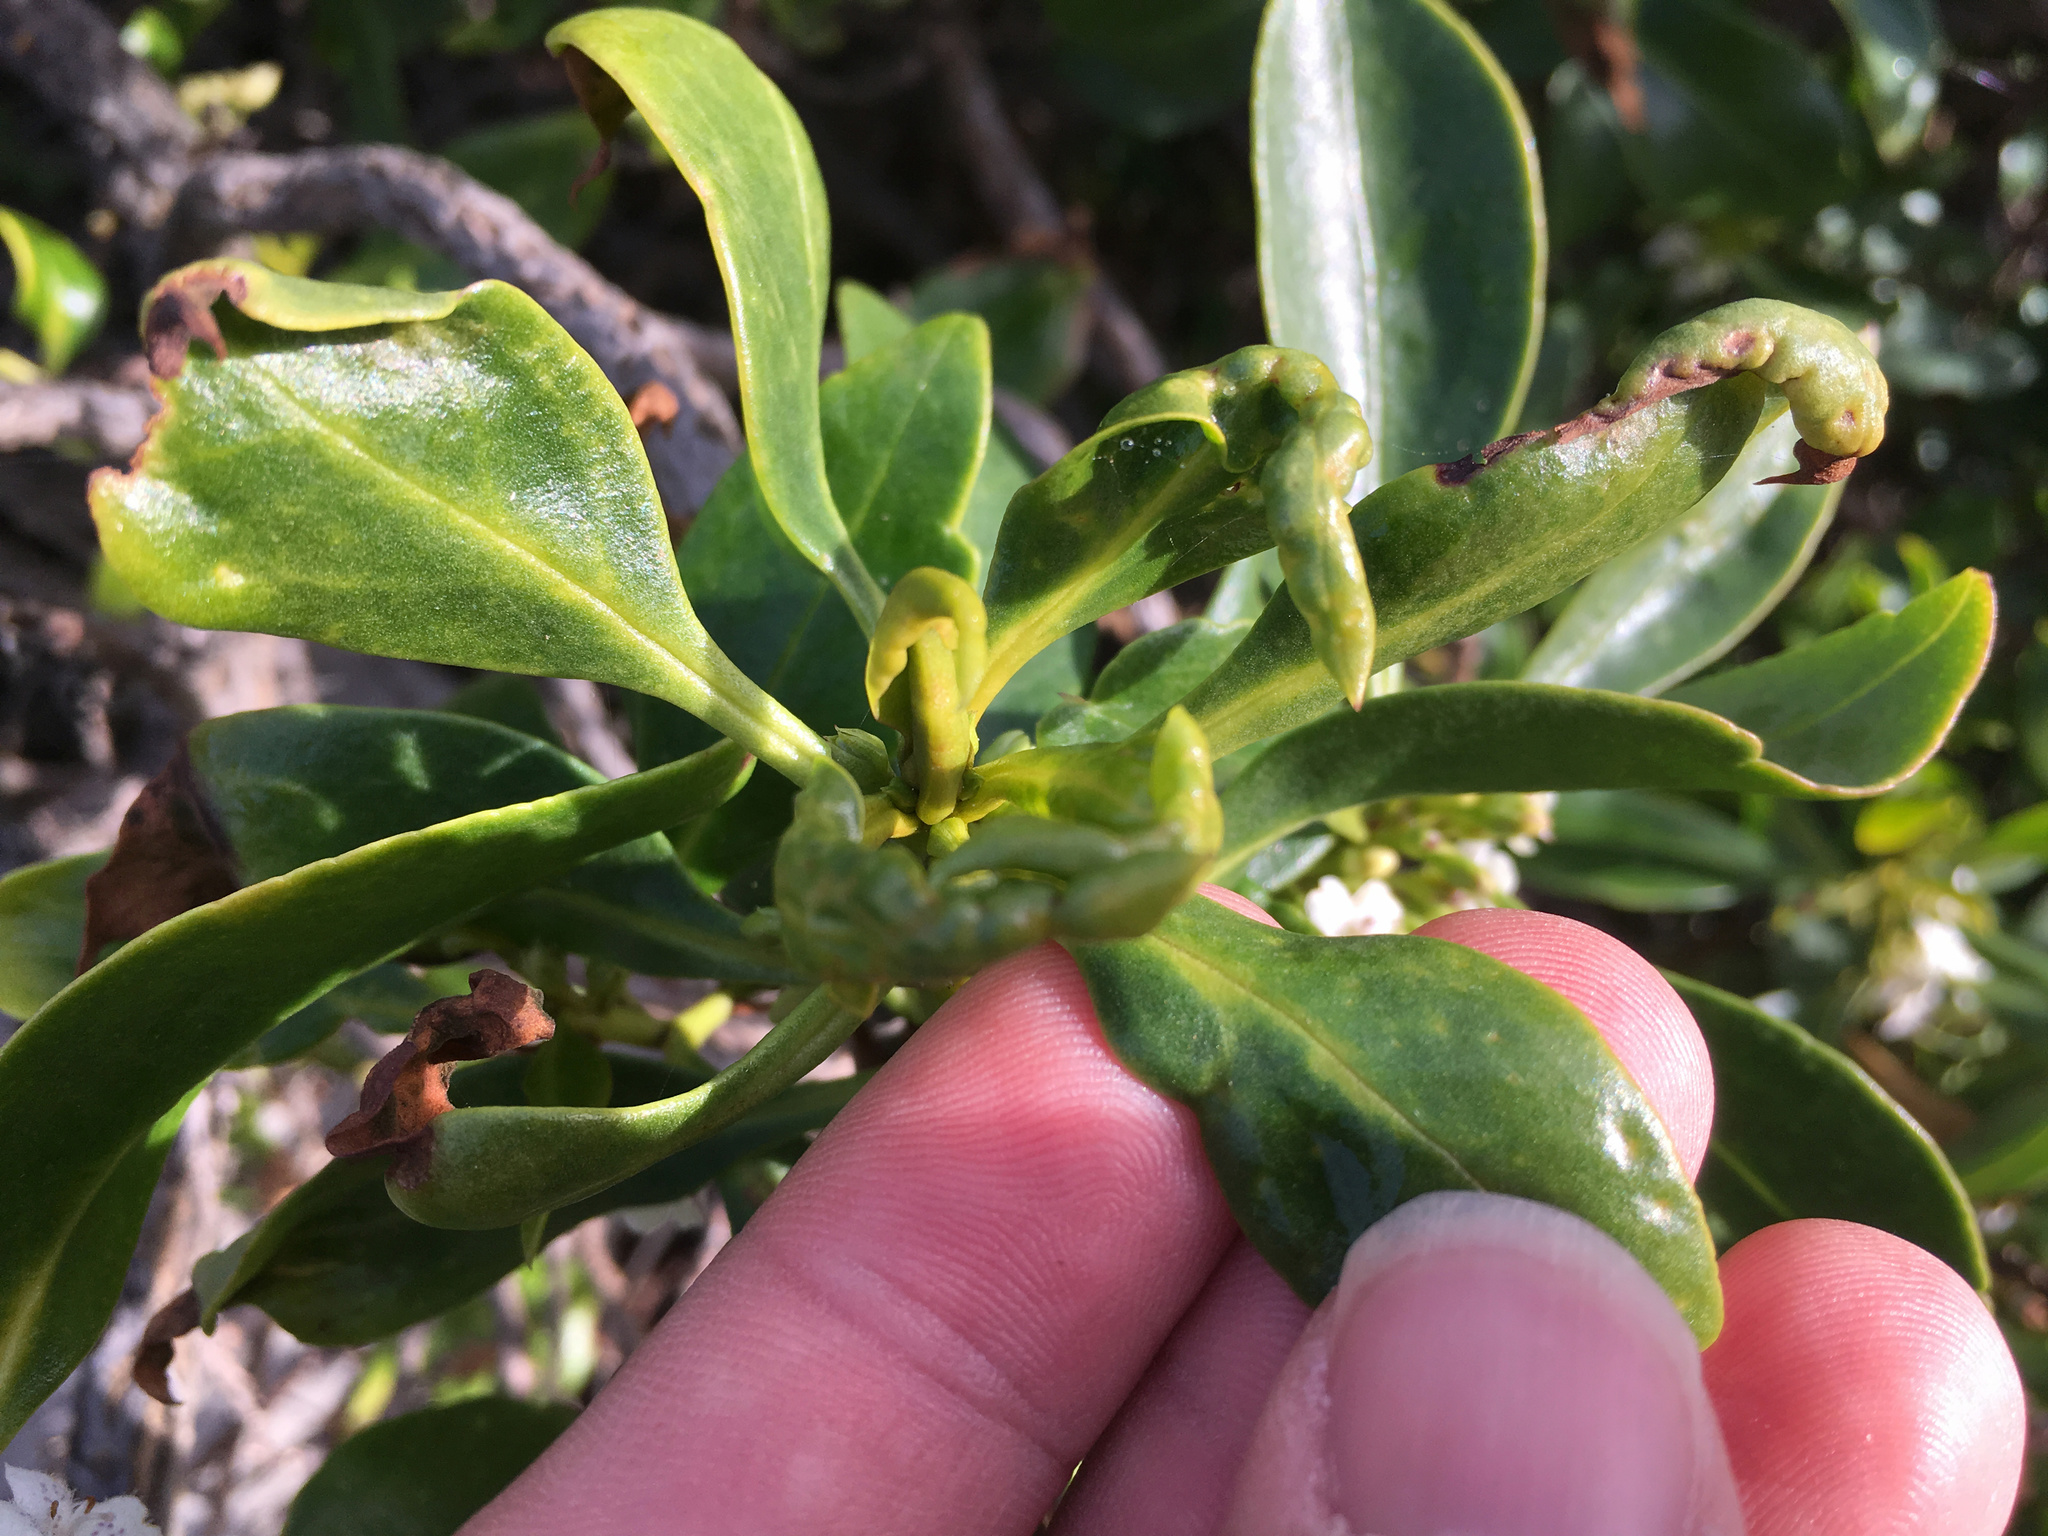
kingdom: Plantae
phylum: Tracheophyta
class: Magnoliopsida
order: Lamiales
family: Scrophulariaceae
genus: Myoporum
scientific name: Myoporum laetum
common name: Ngaio tree
